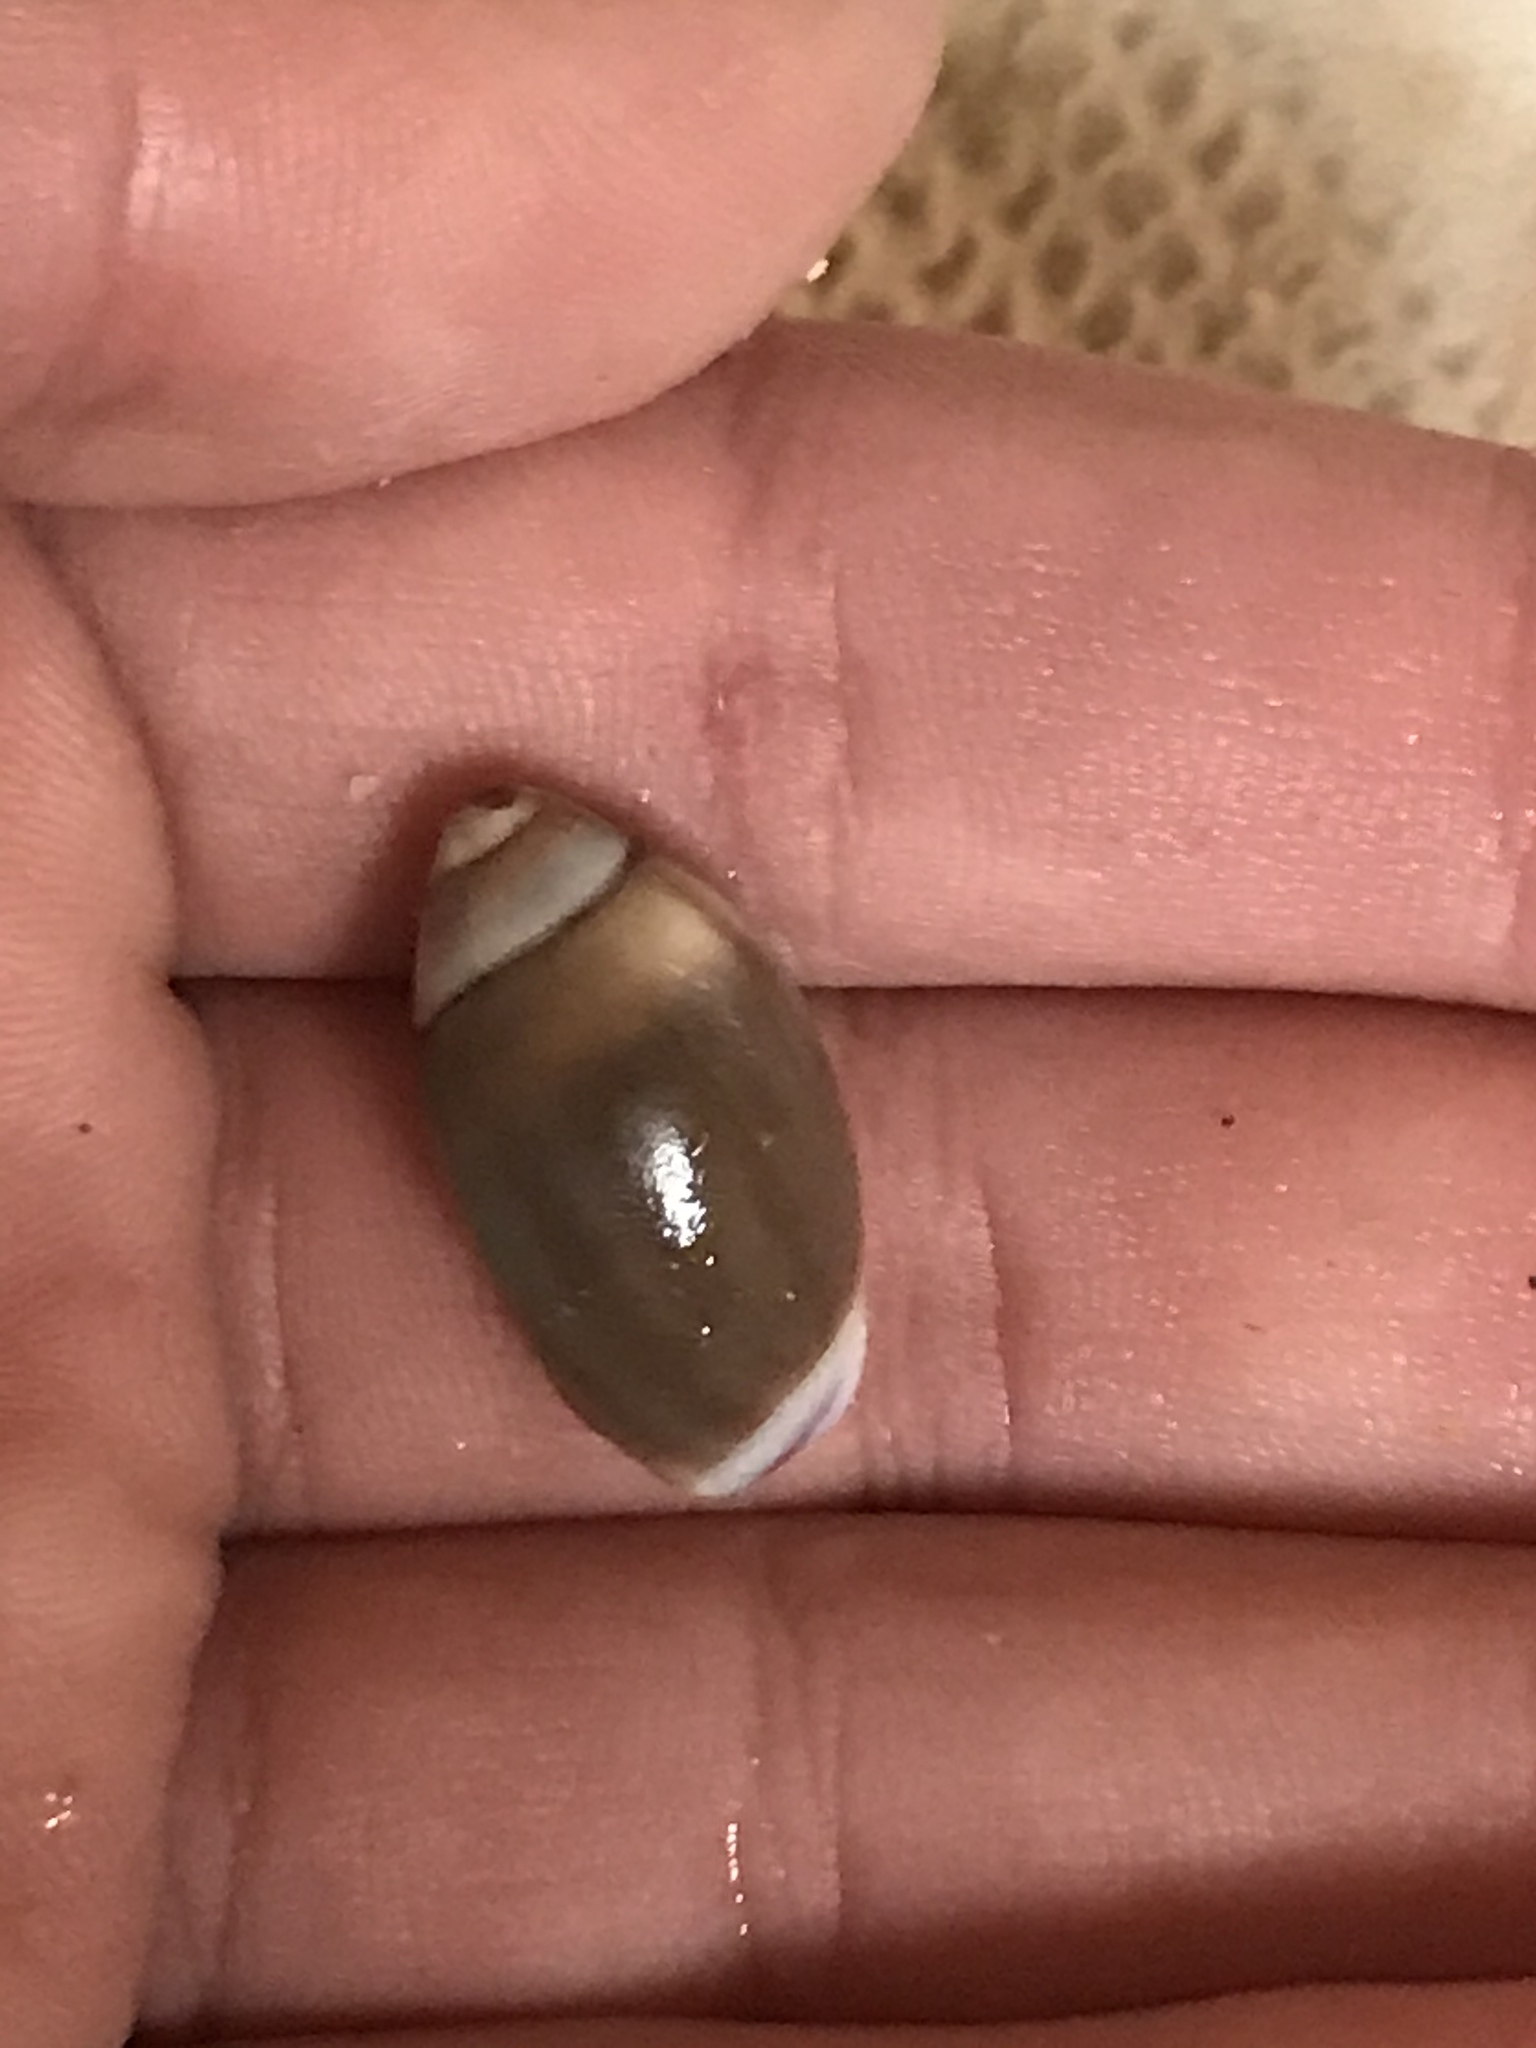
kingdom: Animalia
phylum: Mollusca
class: Gastropoda
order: Neogastropoda
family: Olividae
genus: Callianax
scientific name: Callianax biplicata
